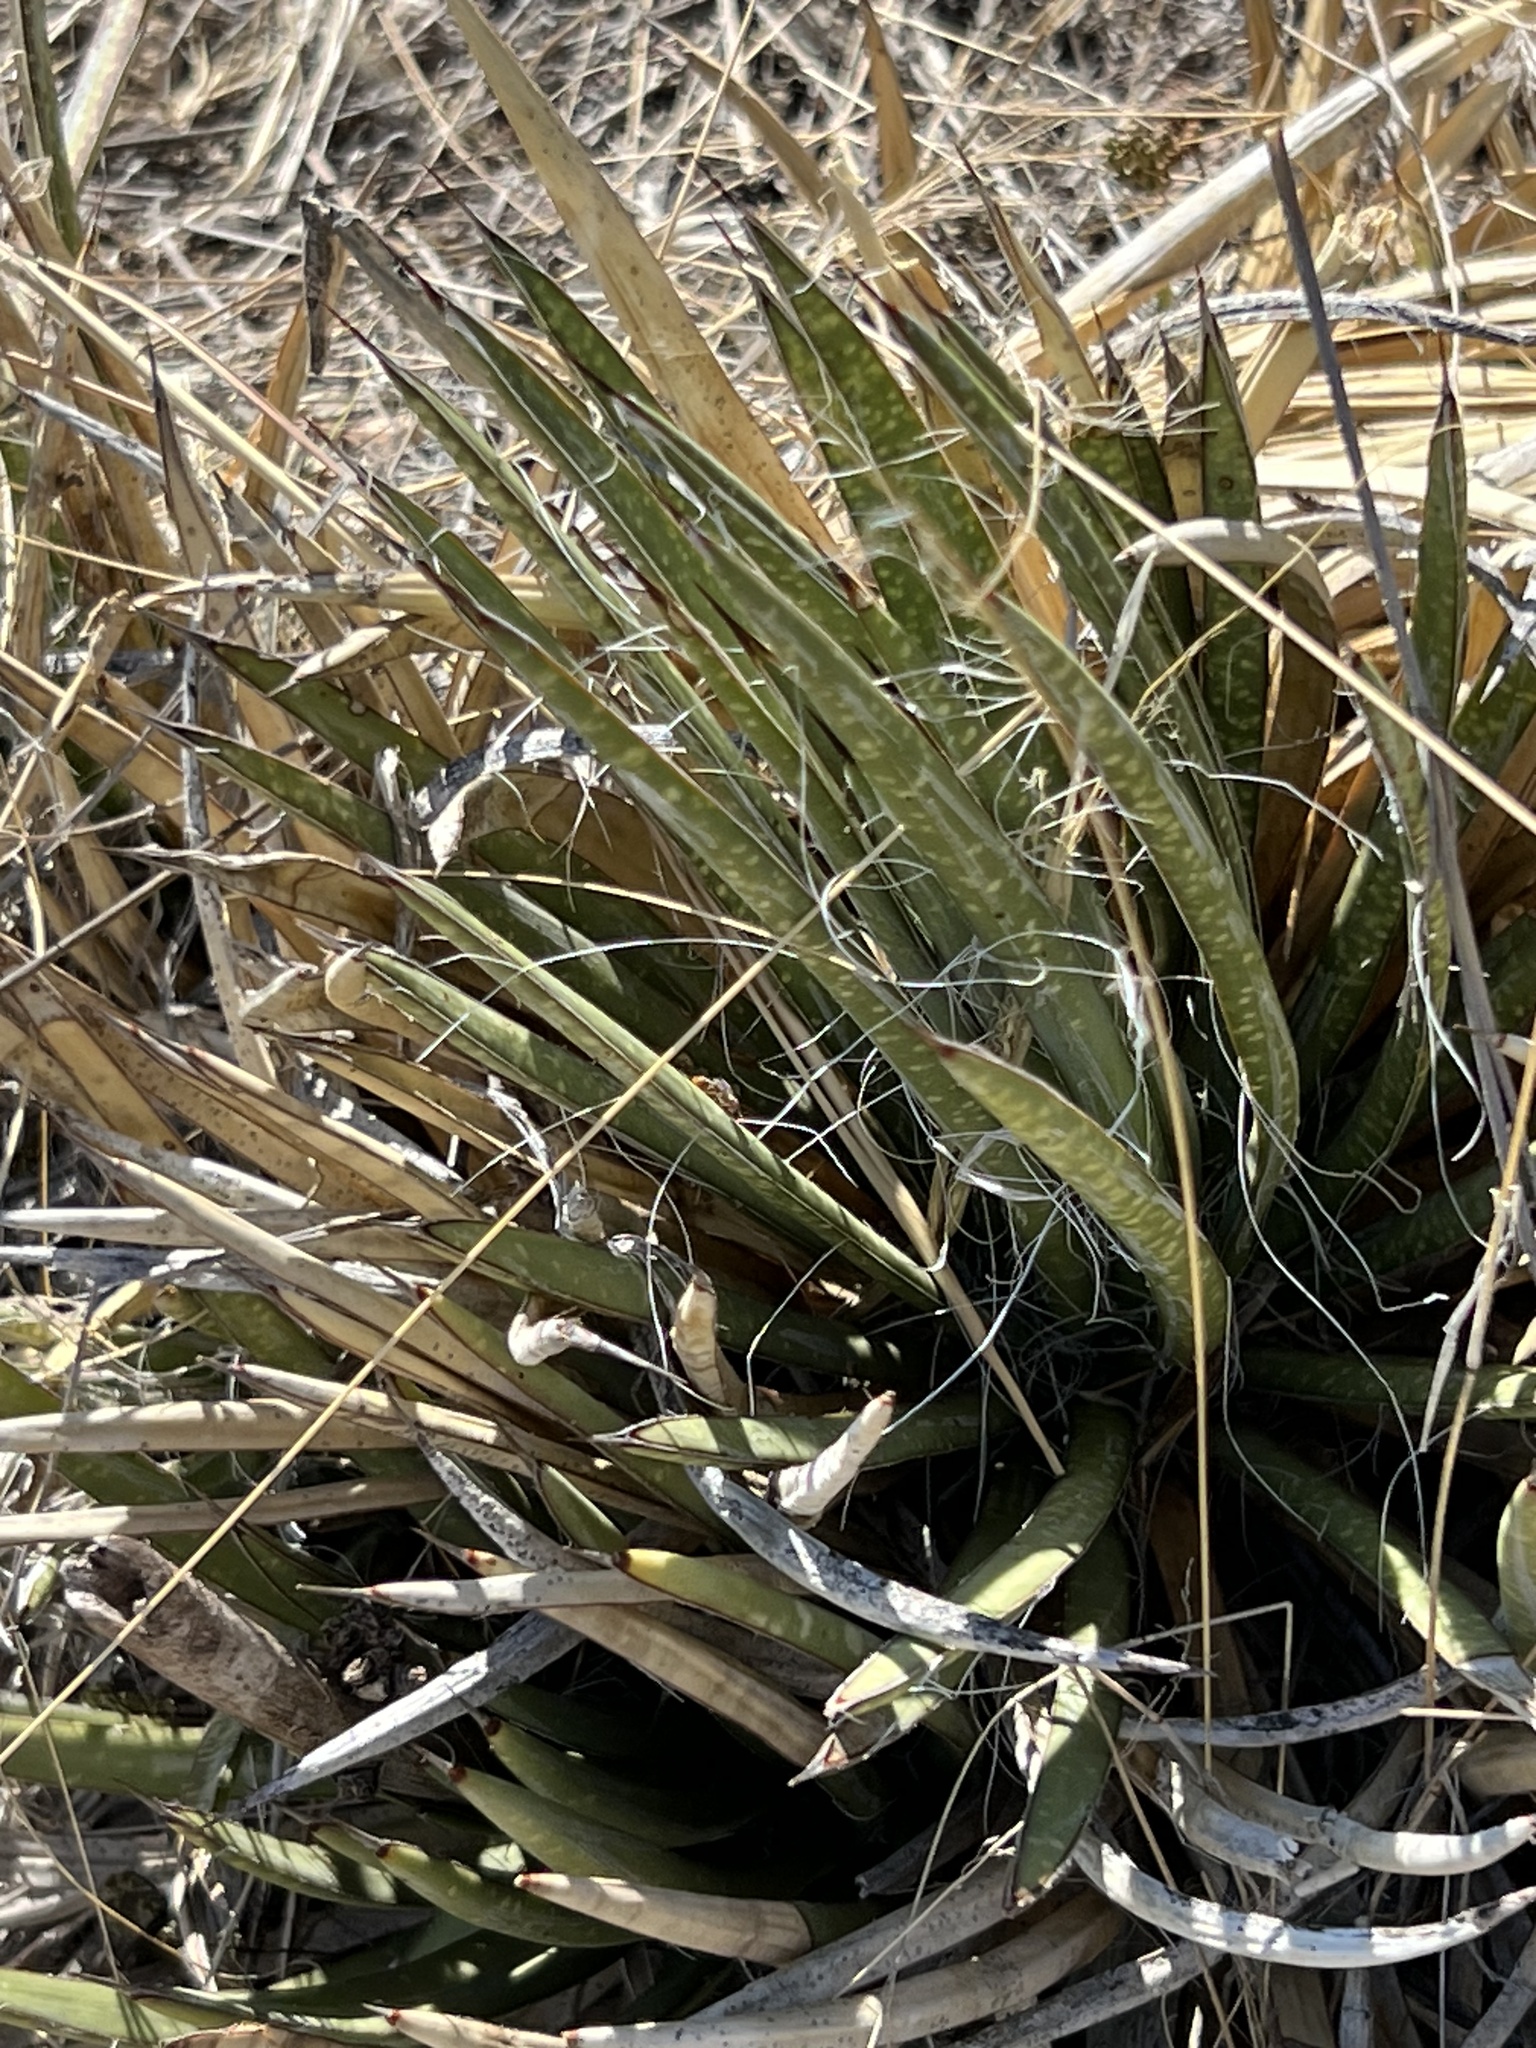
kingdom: Plantae
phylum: Tracheophyta
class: Liliopsida
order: Asparagales
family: Asparagaceae
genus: Agave
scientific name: Agave schottii
